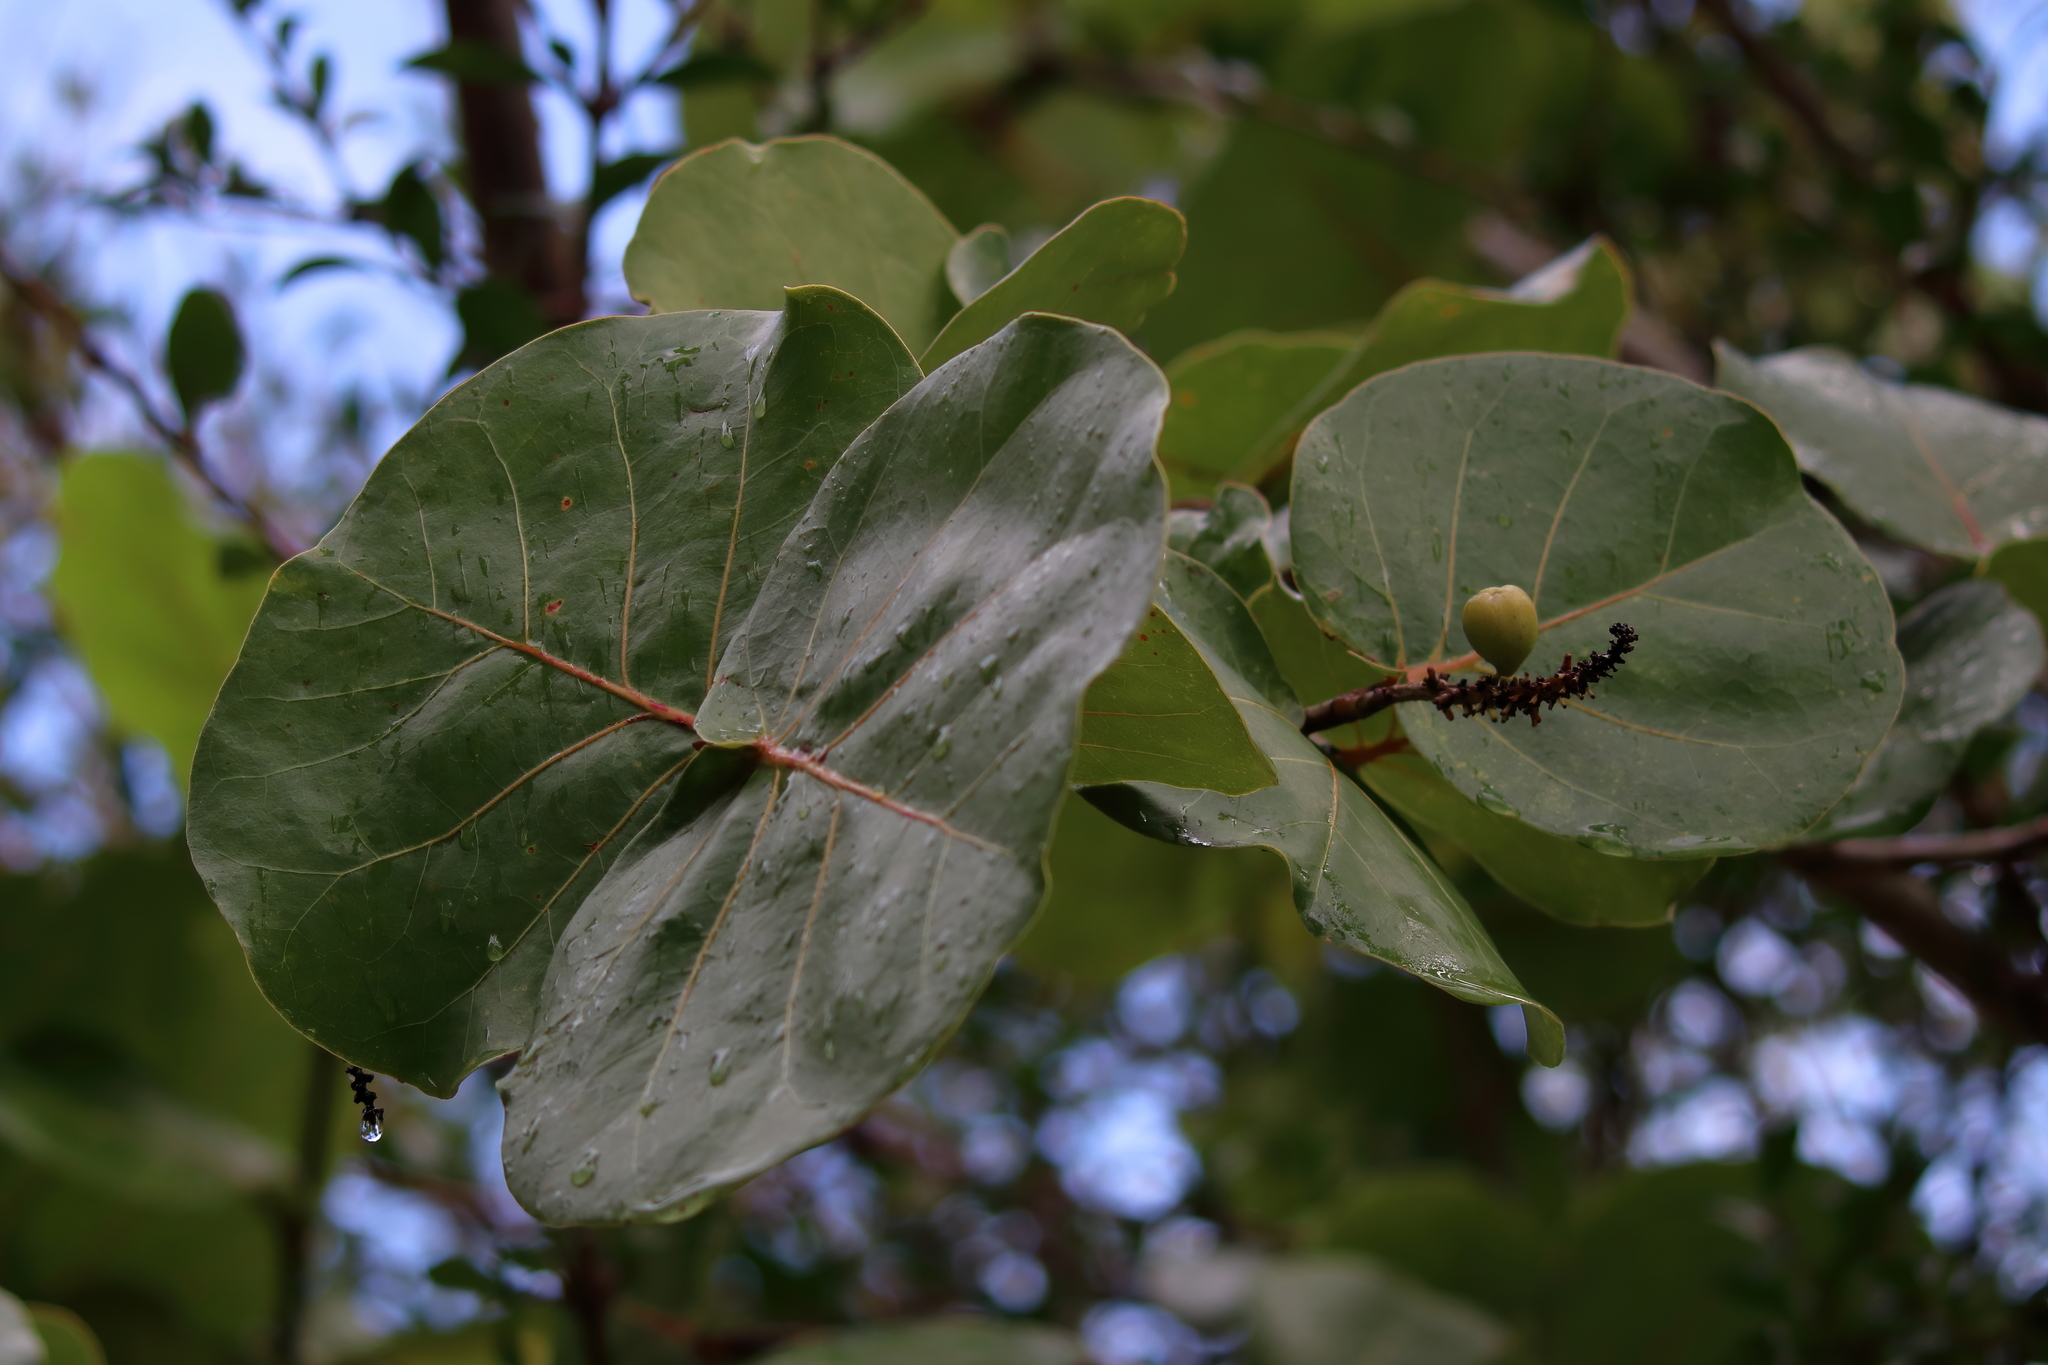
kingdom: Plantae
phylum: Tracheophyta
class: Magnoliopsida
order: Caryophyllales
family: Polygonaceae
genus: Coccoloba
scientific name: Coccoloba uvifera
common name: Seagrape
